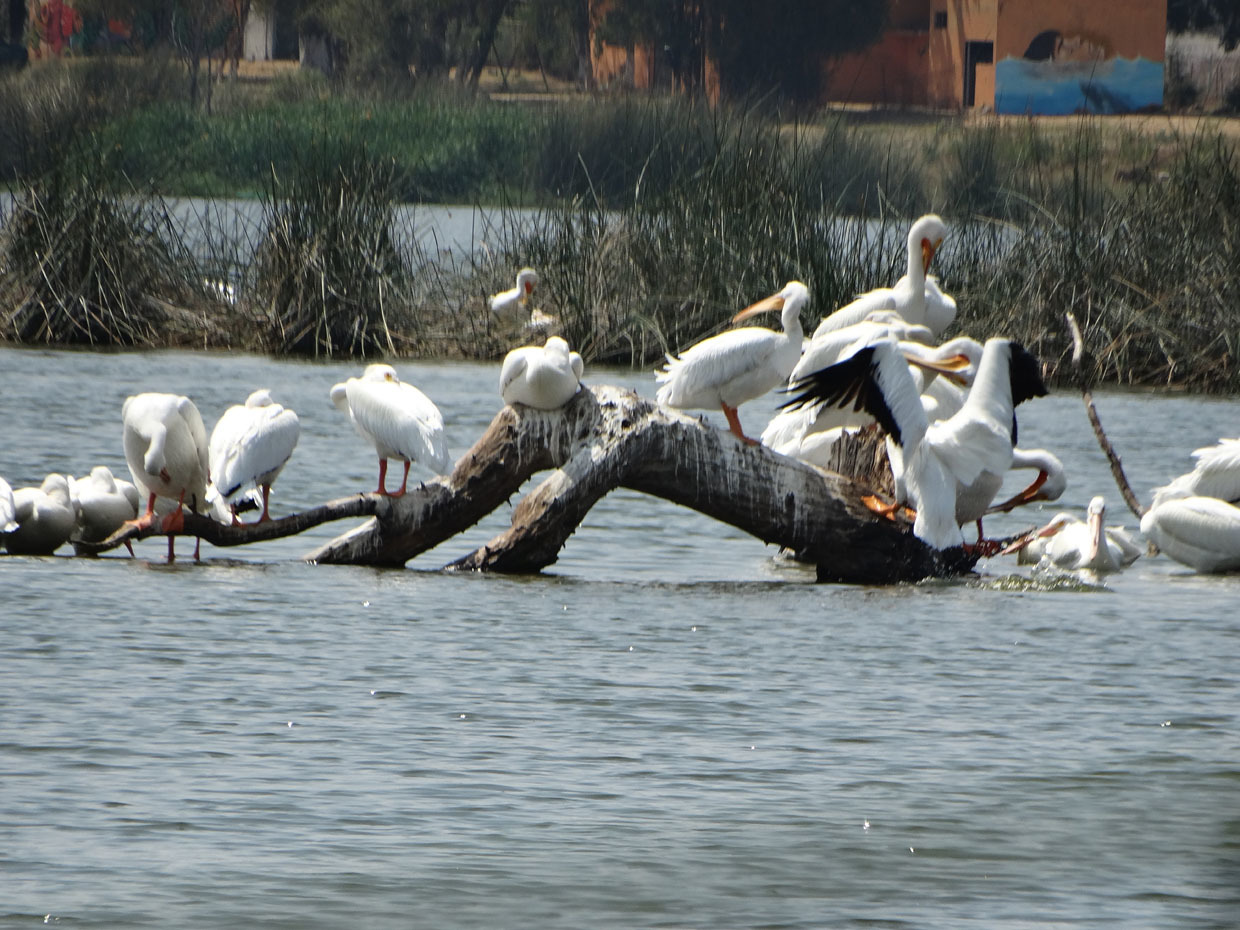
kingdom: Animalia
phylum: Chordata
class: Aves
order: Pelecaniformes
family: Pelecanidae
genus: Pelecanus
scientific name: Pelecanus erythrorhynchos
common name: American white pelican
